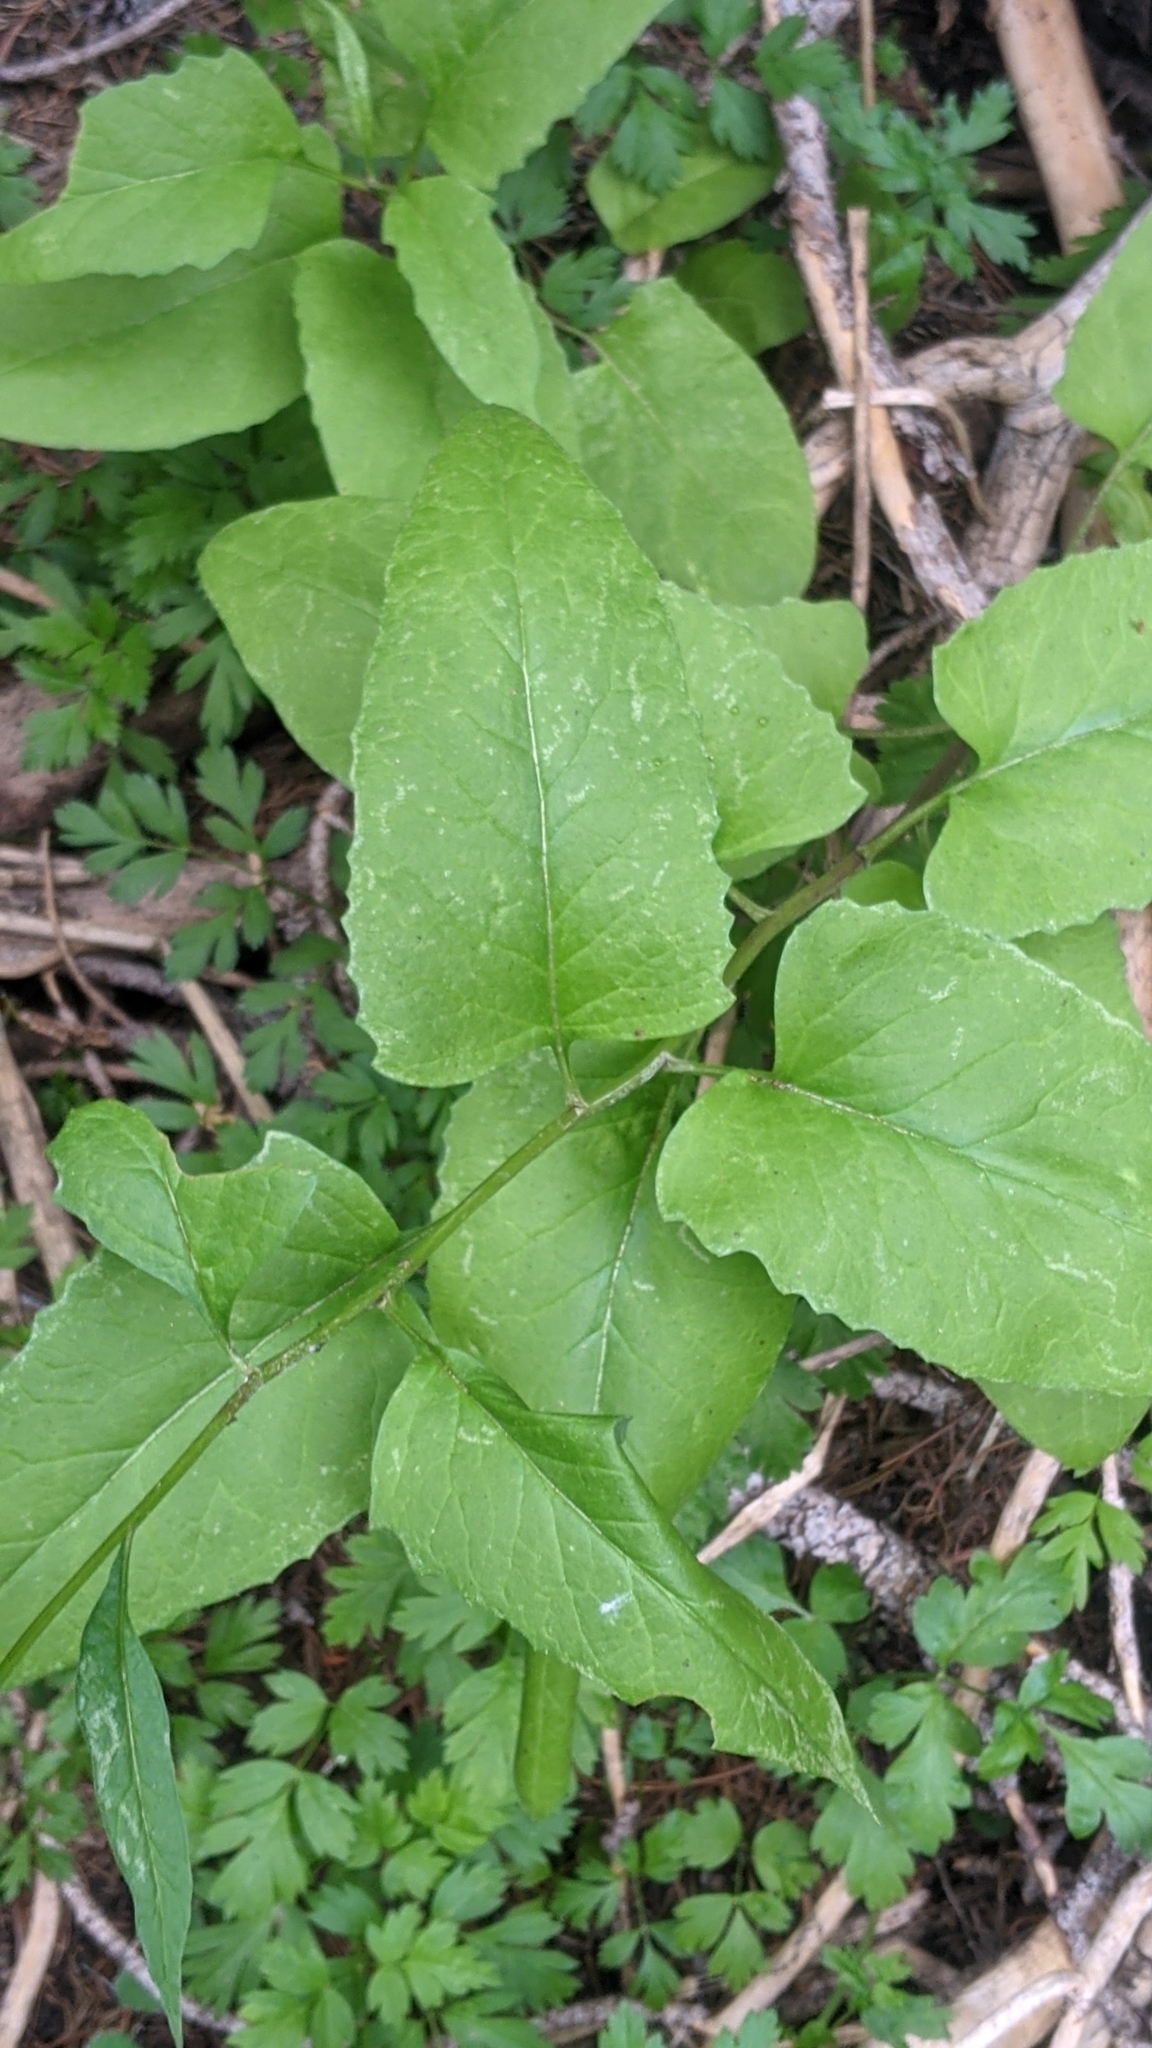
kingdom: Plantae
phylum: Tracheophyta
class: Magnoliopsida
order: Asterales
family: Asteraceae
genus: Senecio
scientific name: Senecio triangularis
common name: Arrowleaf butterweed
